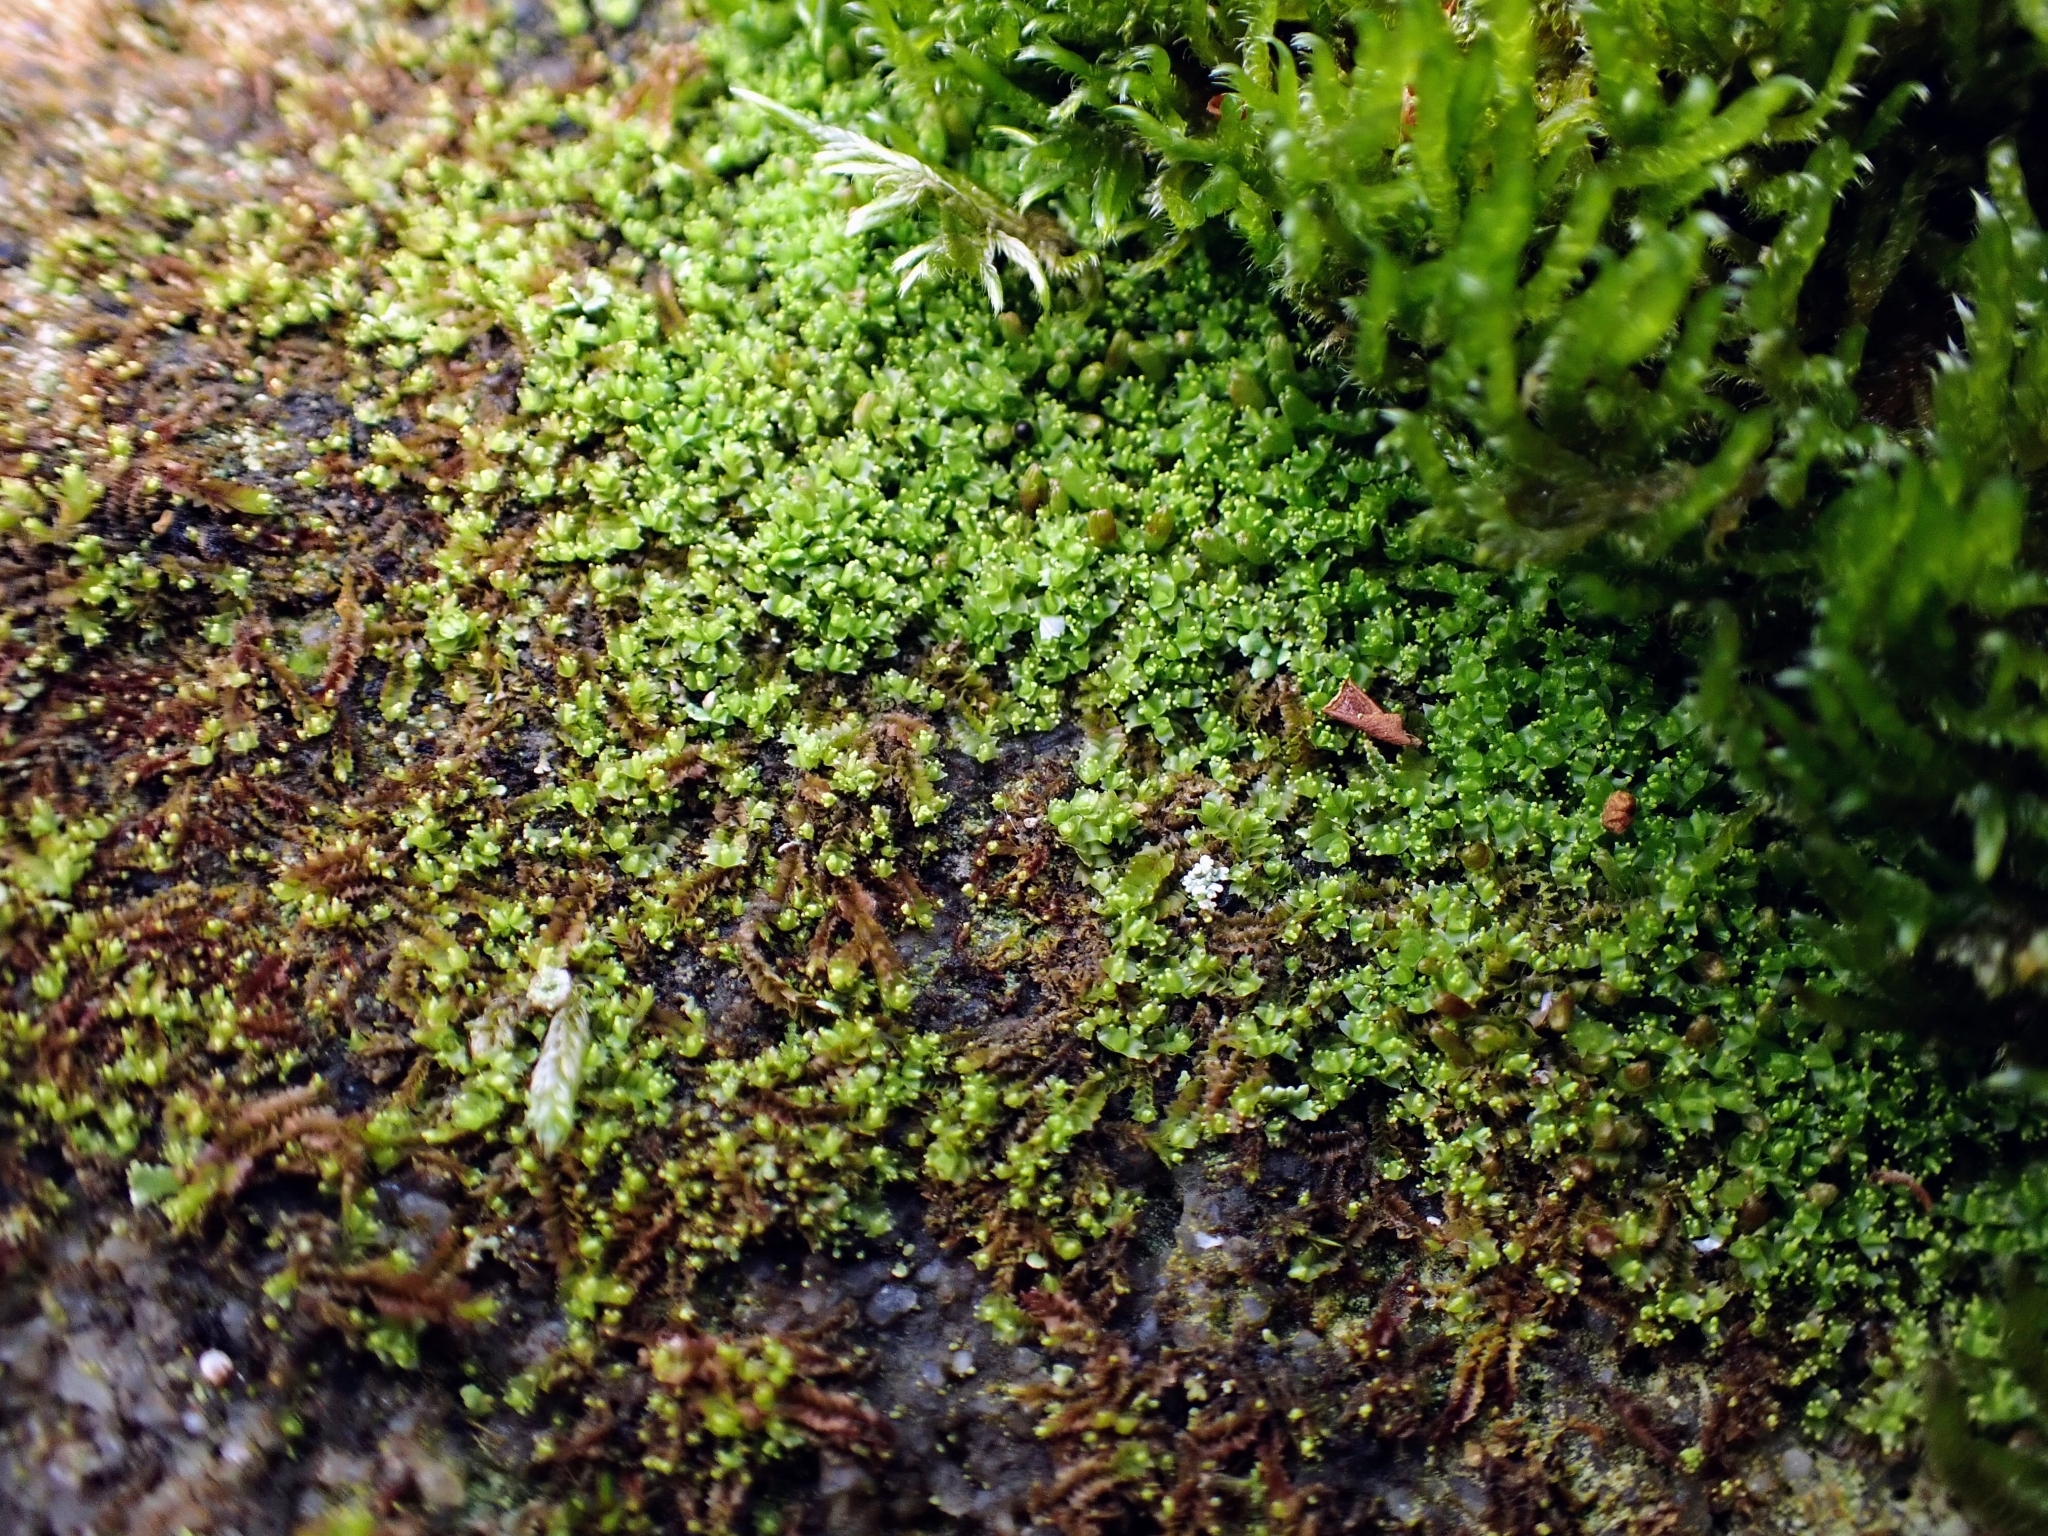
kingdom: Plantae
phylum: Marchantiophyta
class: Jungermanniopsida
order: Jungermanniales
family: Lophoziaceae
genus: Lophozia
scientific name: Lophozia ventricosa
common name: Tumid notchwort
